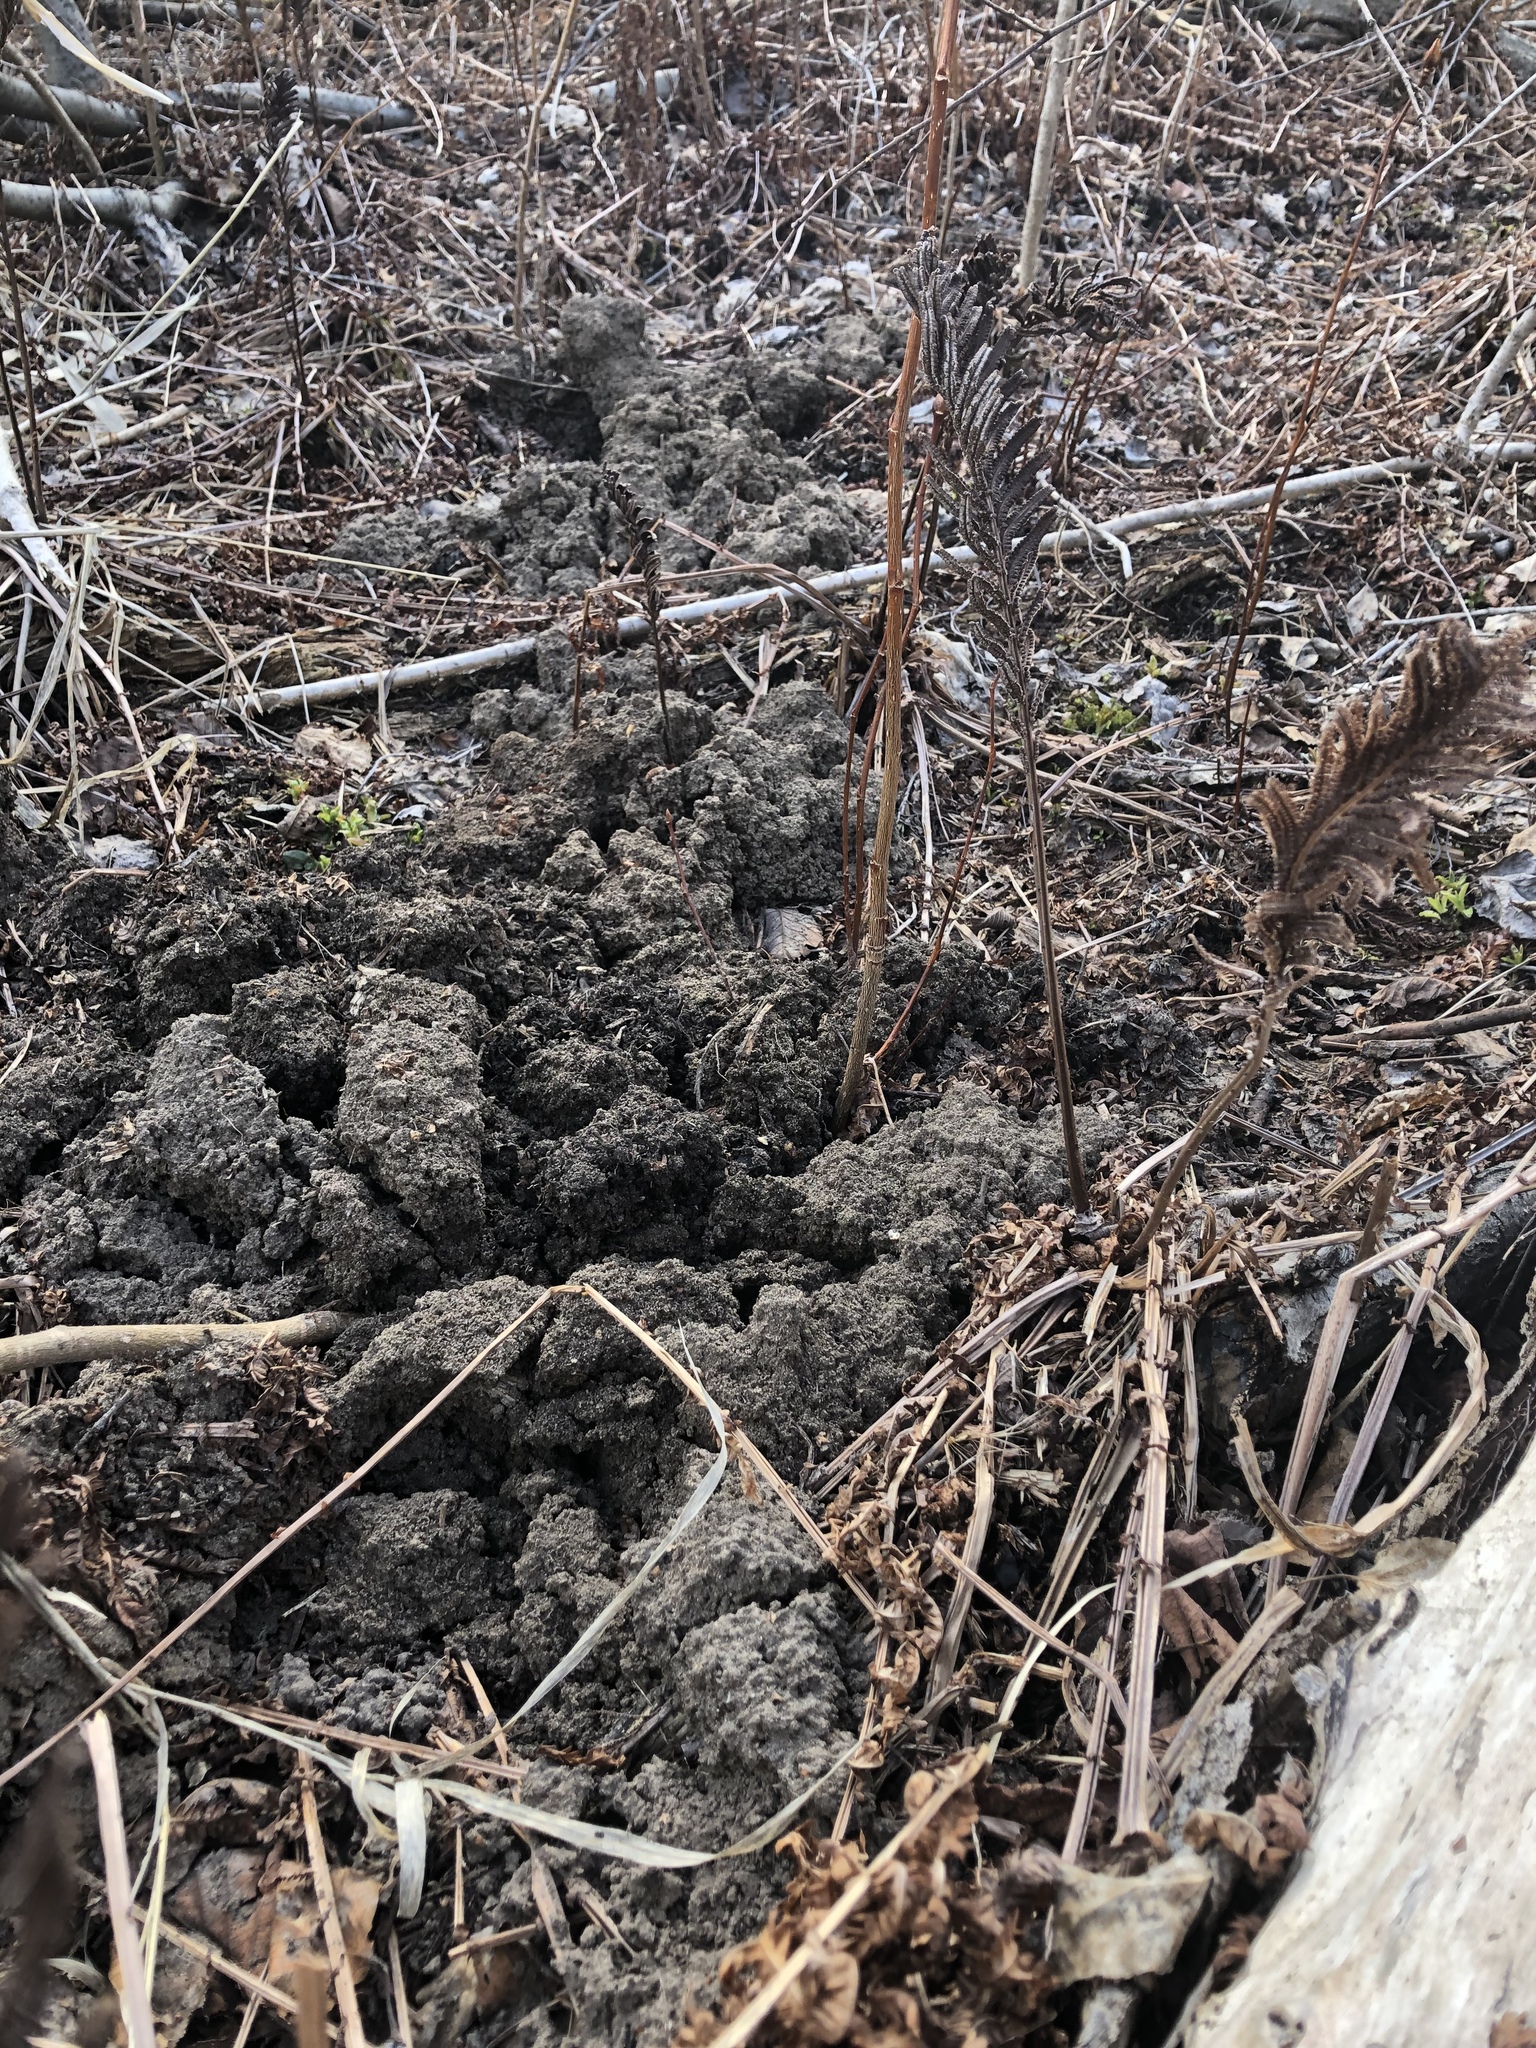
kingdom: Animalia
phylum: Chordata
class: Mammalia
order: Soricomorpha
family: Talpidae
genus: Condylura
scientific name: Condylura cristata
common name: Star-nosed mole
